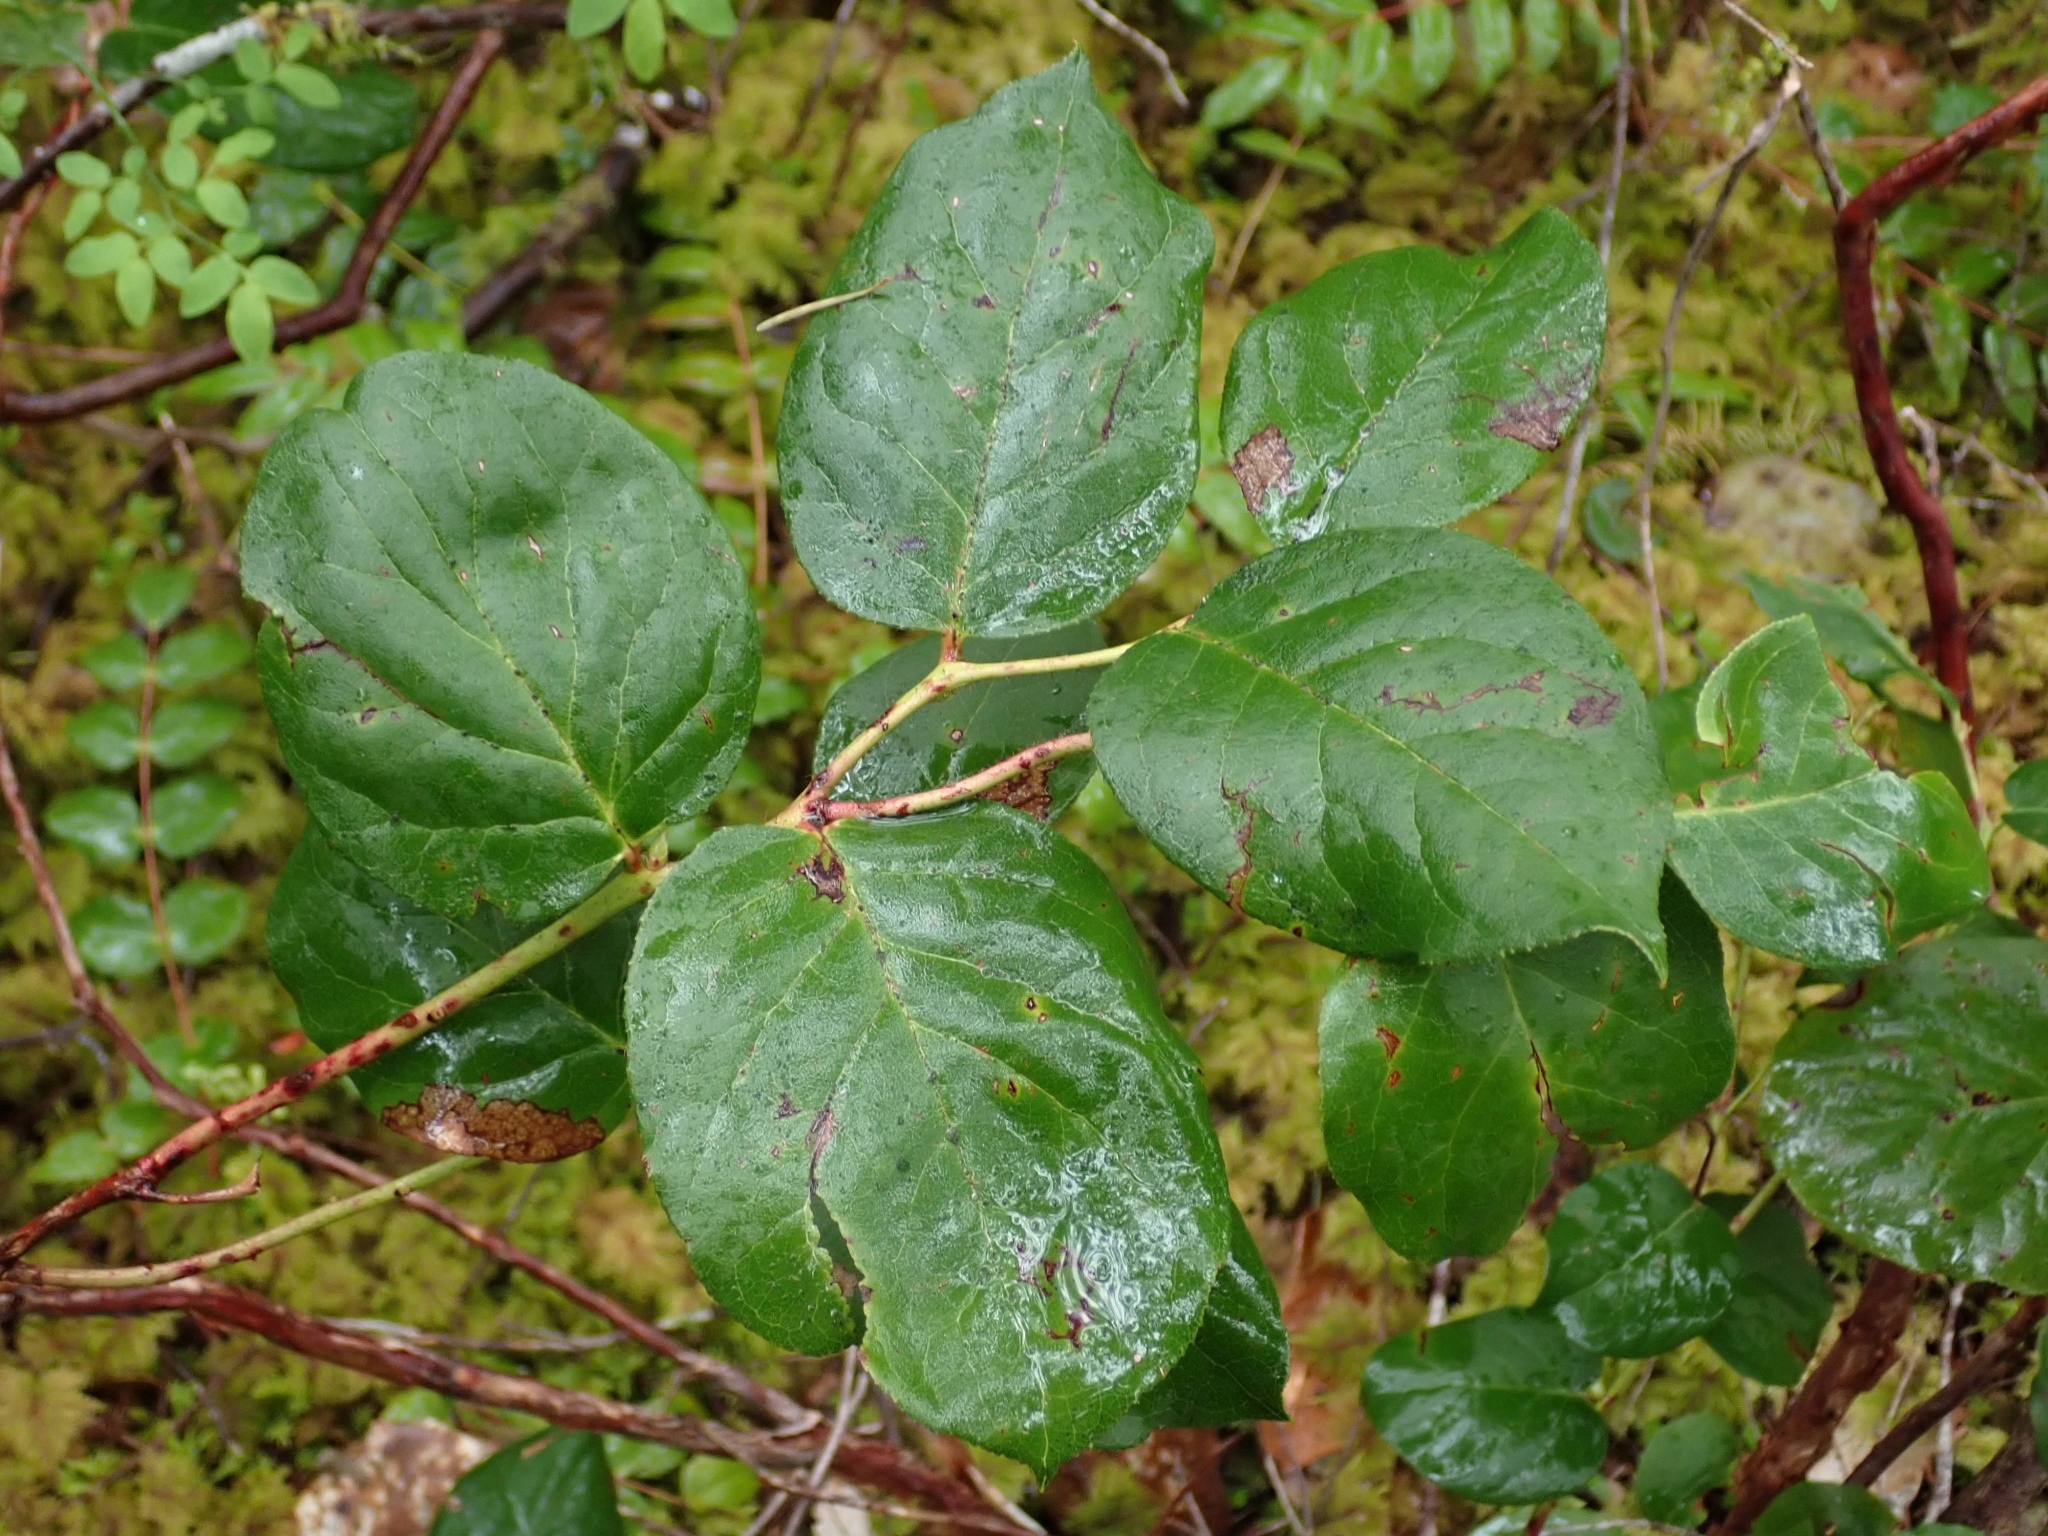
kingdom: Plantae
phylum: Tracheophyta
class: Magnoliopsida
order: Ericales
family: Ericaceae
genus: Gaultheria
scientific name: Gaultheria shallon
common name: Shallon
